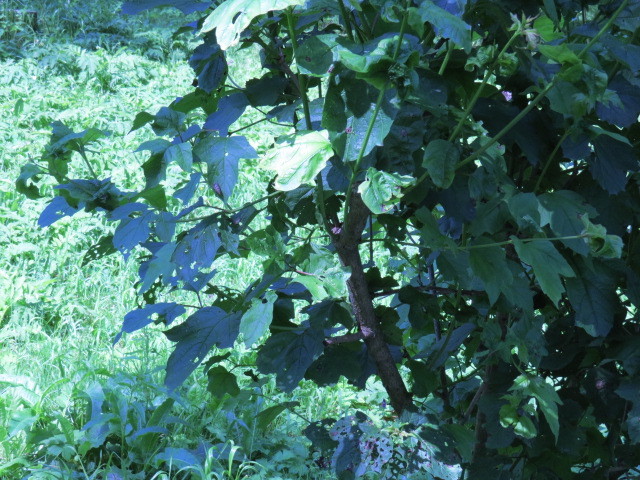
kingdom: Plantae
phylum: Tracheophyta
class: Magnoliopsida
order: Dipsacales
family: Viburnaceae
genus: Viburnum
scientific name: Viburnum opulus
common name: Guelder-rose
